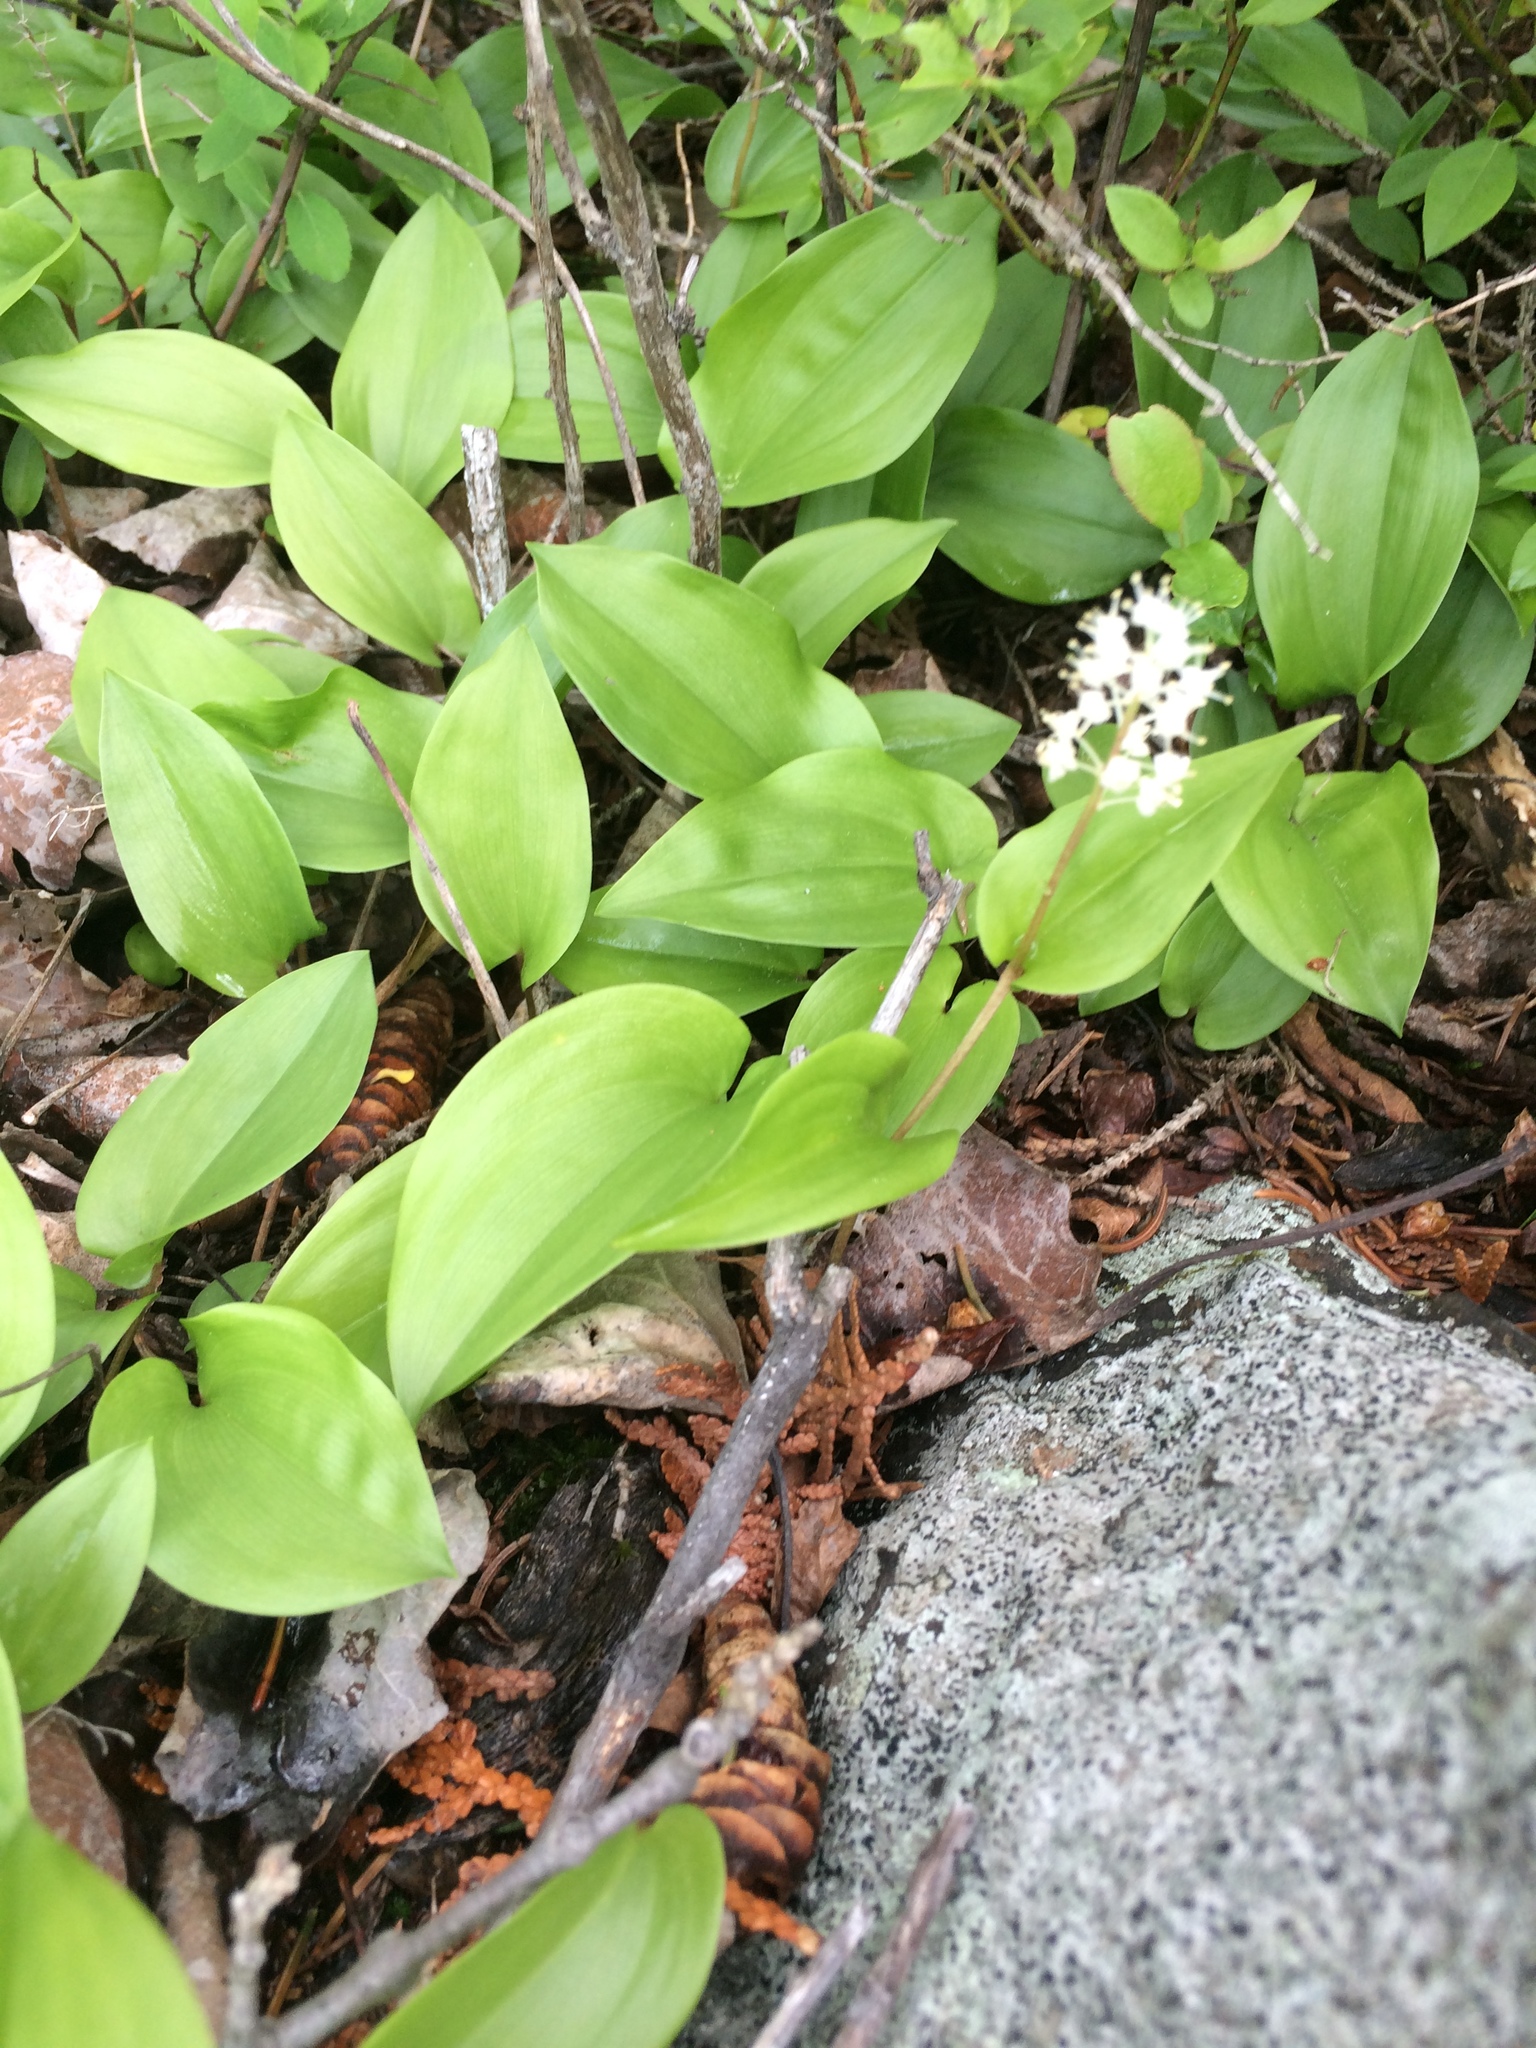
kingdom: Plantae
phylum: Tracheophyta
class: Liliopsida
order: Asparagales
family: Asparagaceae
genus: Maianthemum
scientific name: Maianthemum canadense
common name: False lily-of-the-valley
